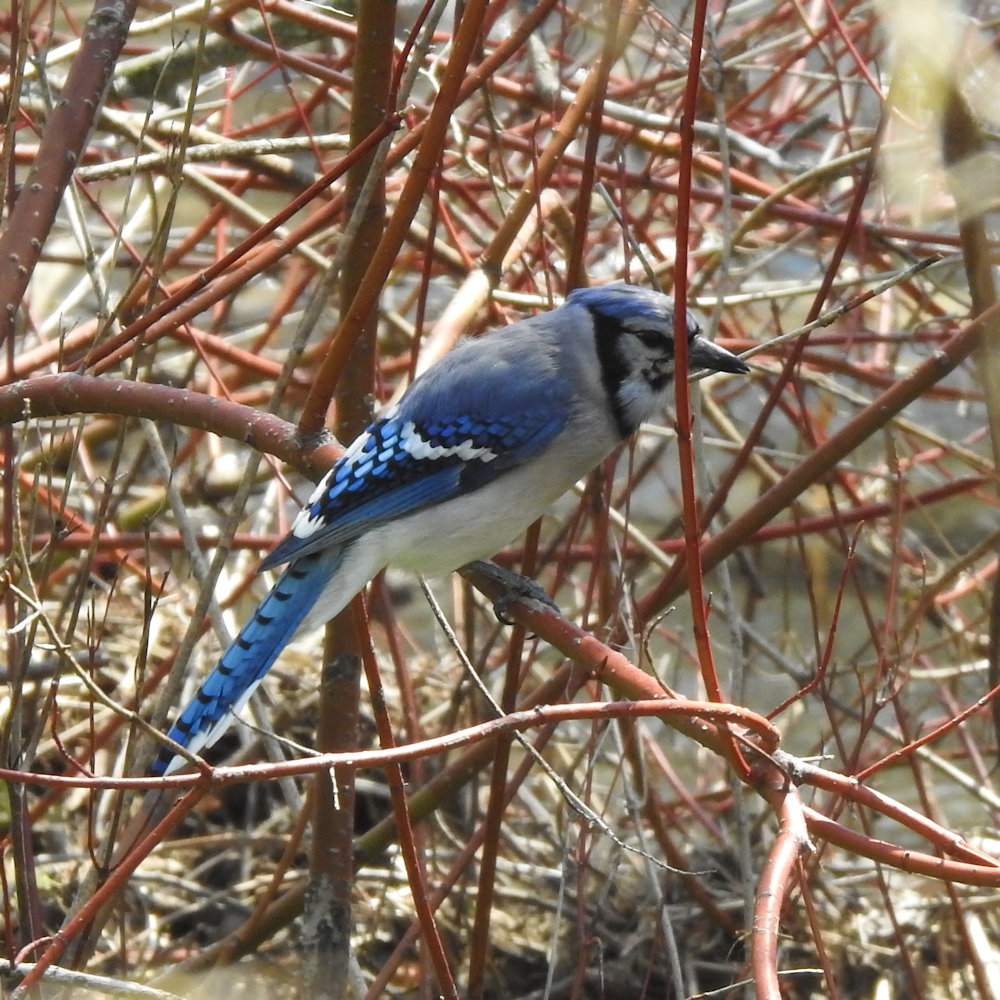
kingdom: Animalia
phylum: Chordata
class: Aves
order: Passeriformes
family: Corvidae
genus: Cyanocitta
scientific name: Cyanocitta cristata
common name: Blue jay
